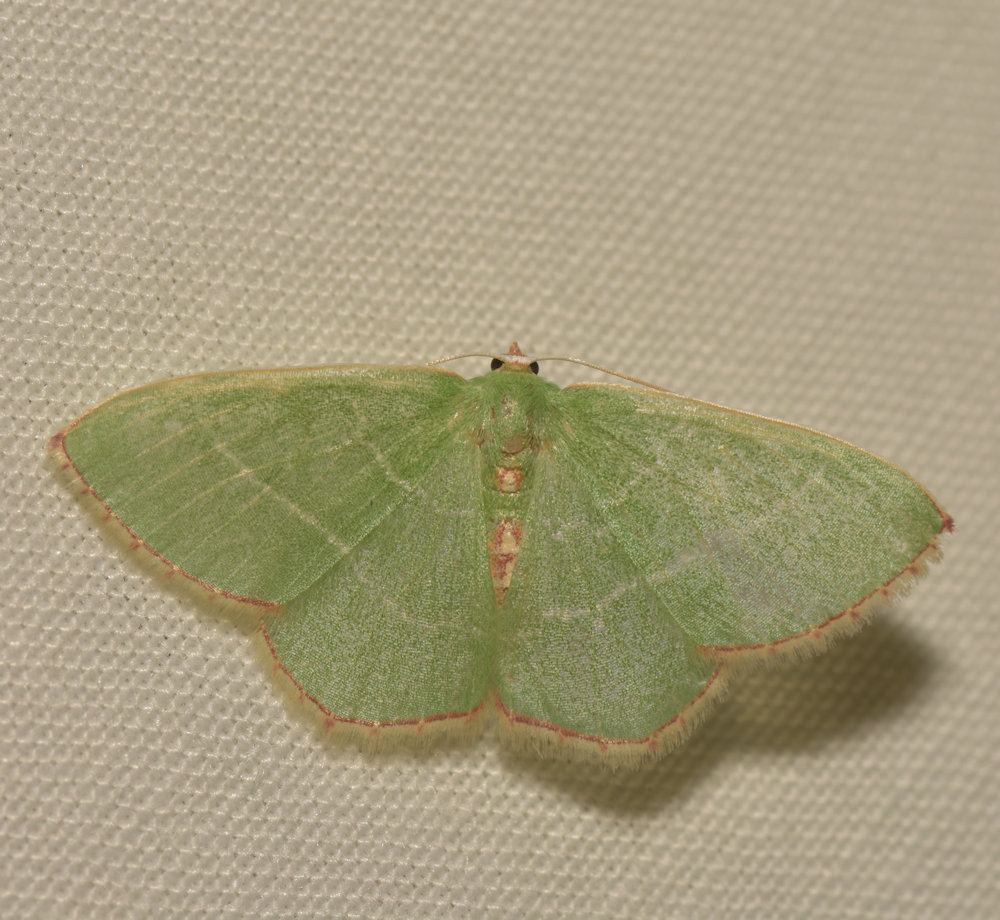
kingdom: Animalia
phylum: Arthropoda
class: Insecta
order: Lepidoptera
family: Geometridae
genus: Nemoria
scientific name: Nemoria bistriaria
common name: Red-fringed emerald
